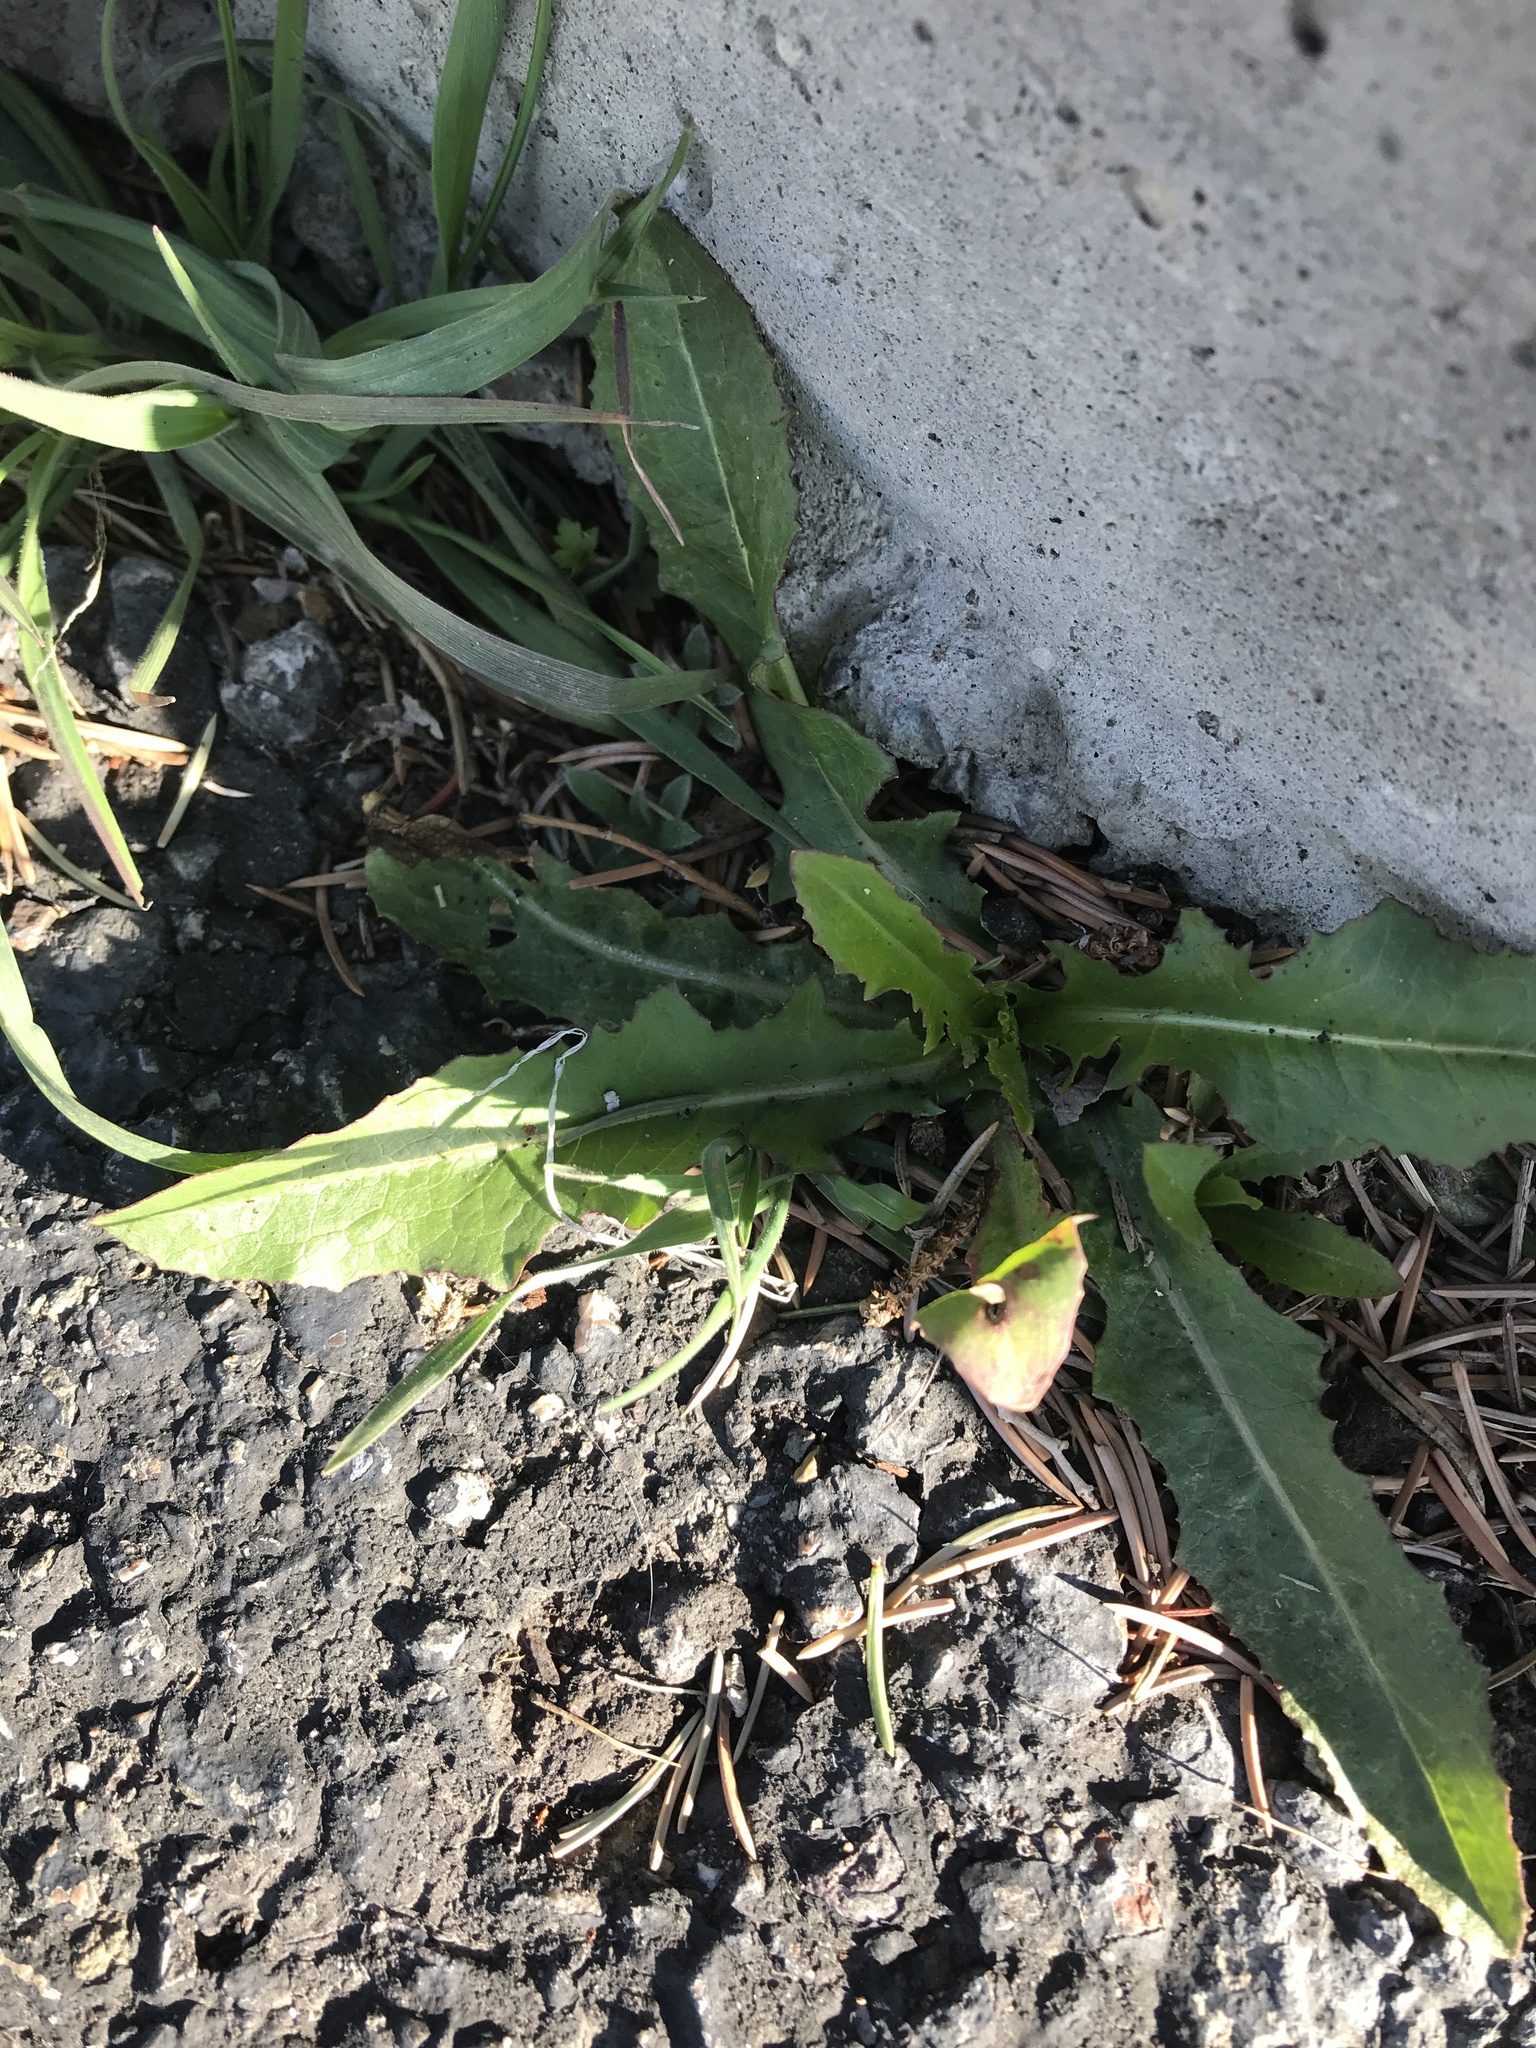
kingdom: Plantae
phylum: Tracheophyta
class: Magnoliopsida
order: Asterales
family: Asteraceae
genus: Taraxacum
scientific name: Taraxacum officinale
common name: Common dandelion
